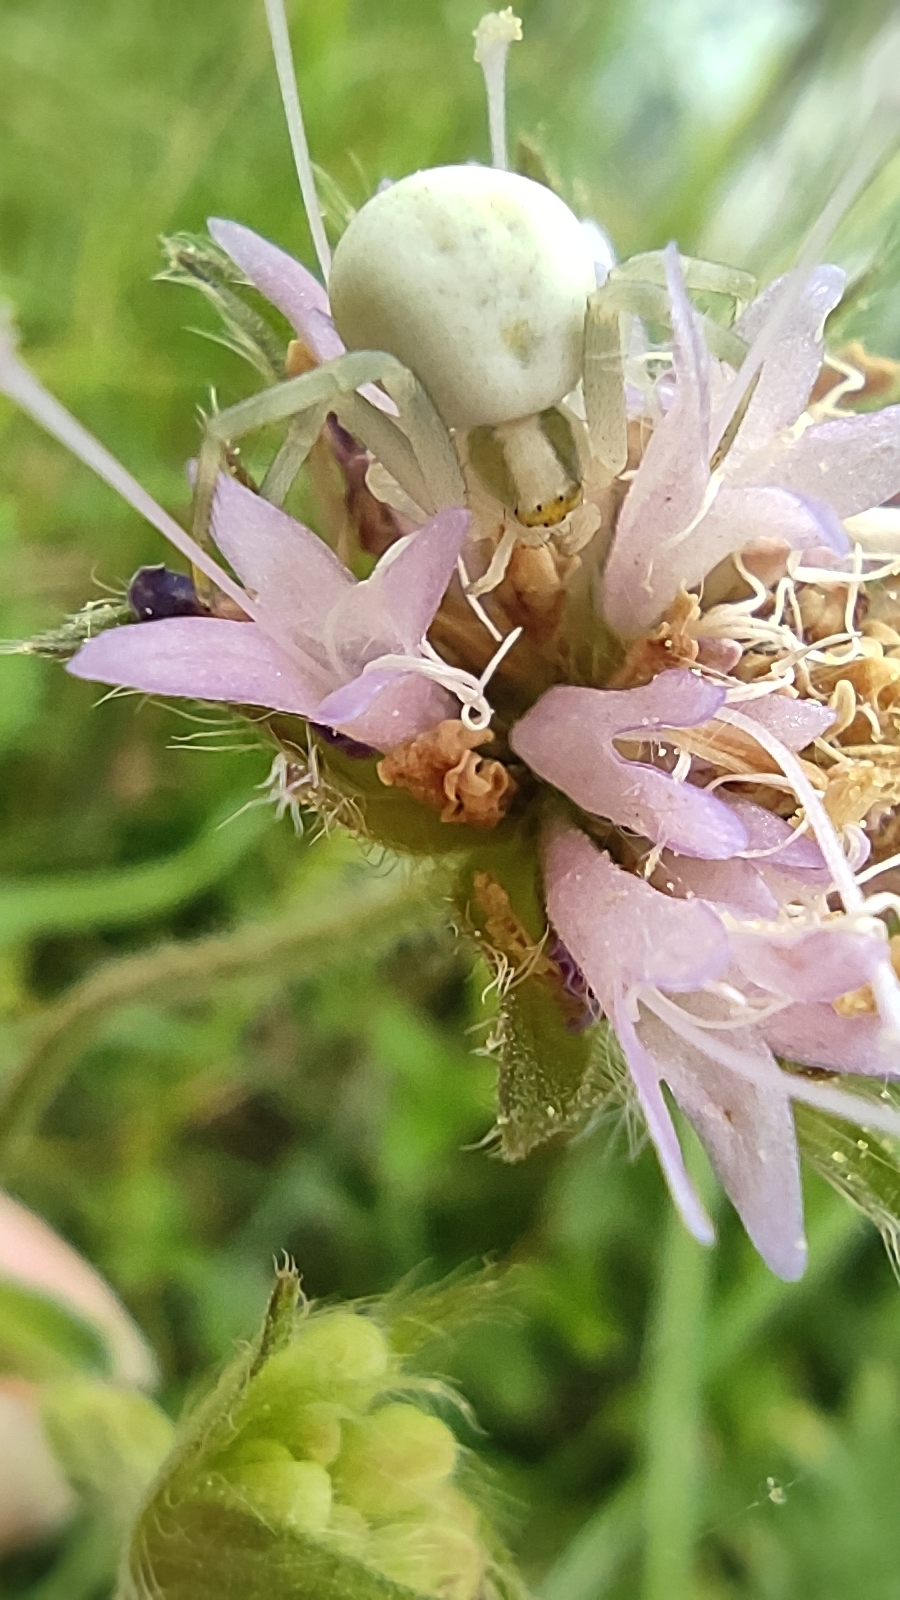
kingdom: Animalia
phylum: Arthropoda
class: Arachnida
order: Araneae
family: Thomisidae
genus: Misumena
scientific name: Misumena vatia
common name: Goldenrod crab spider
